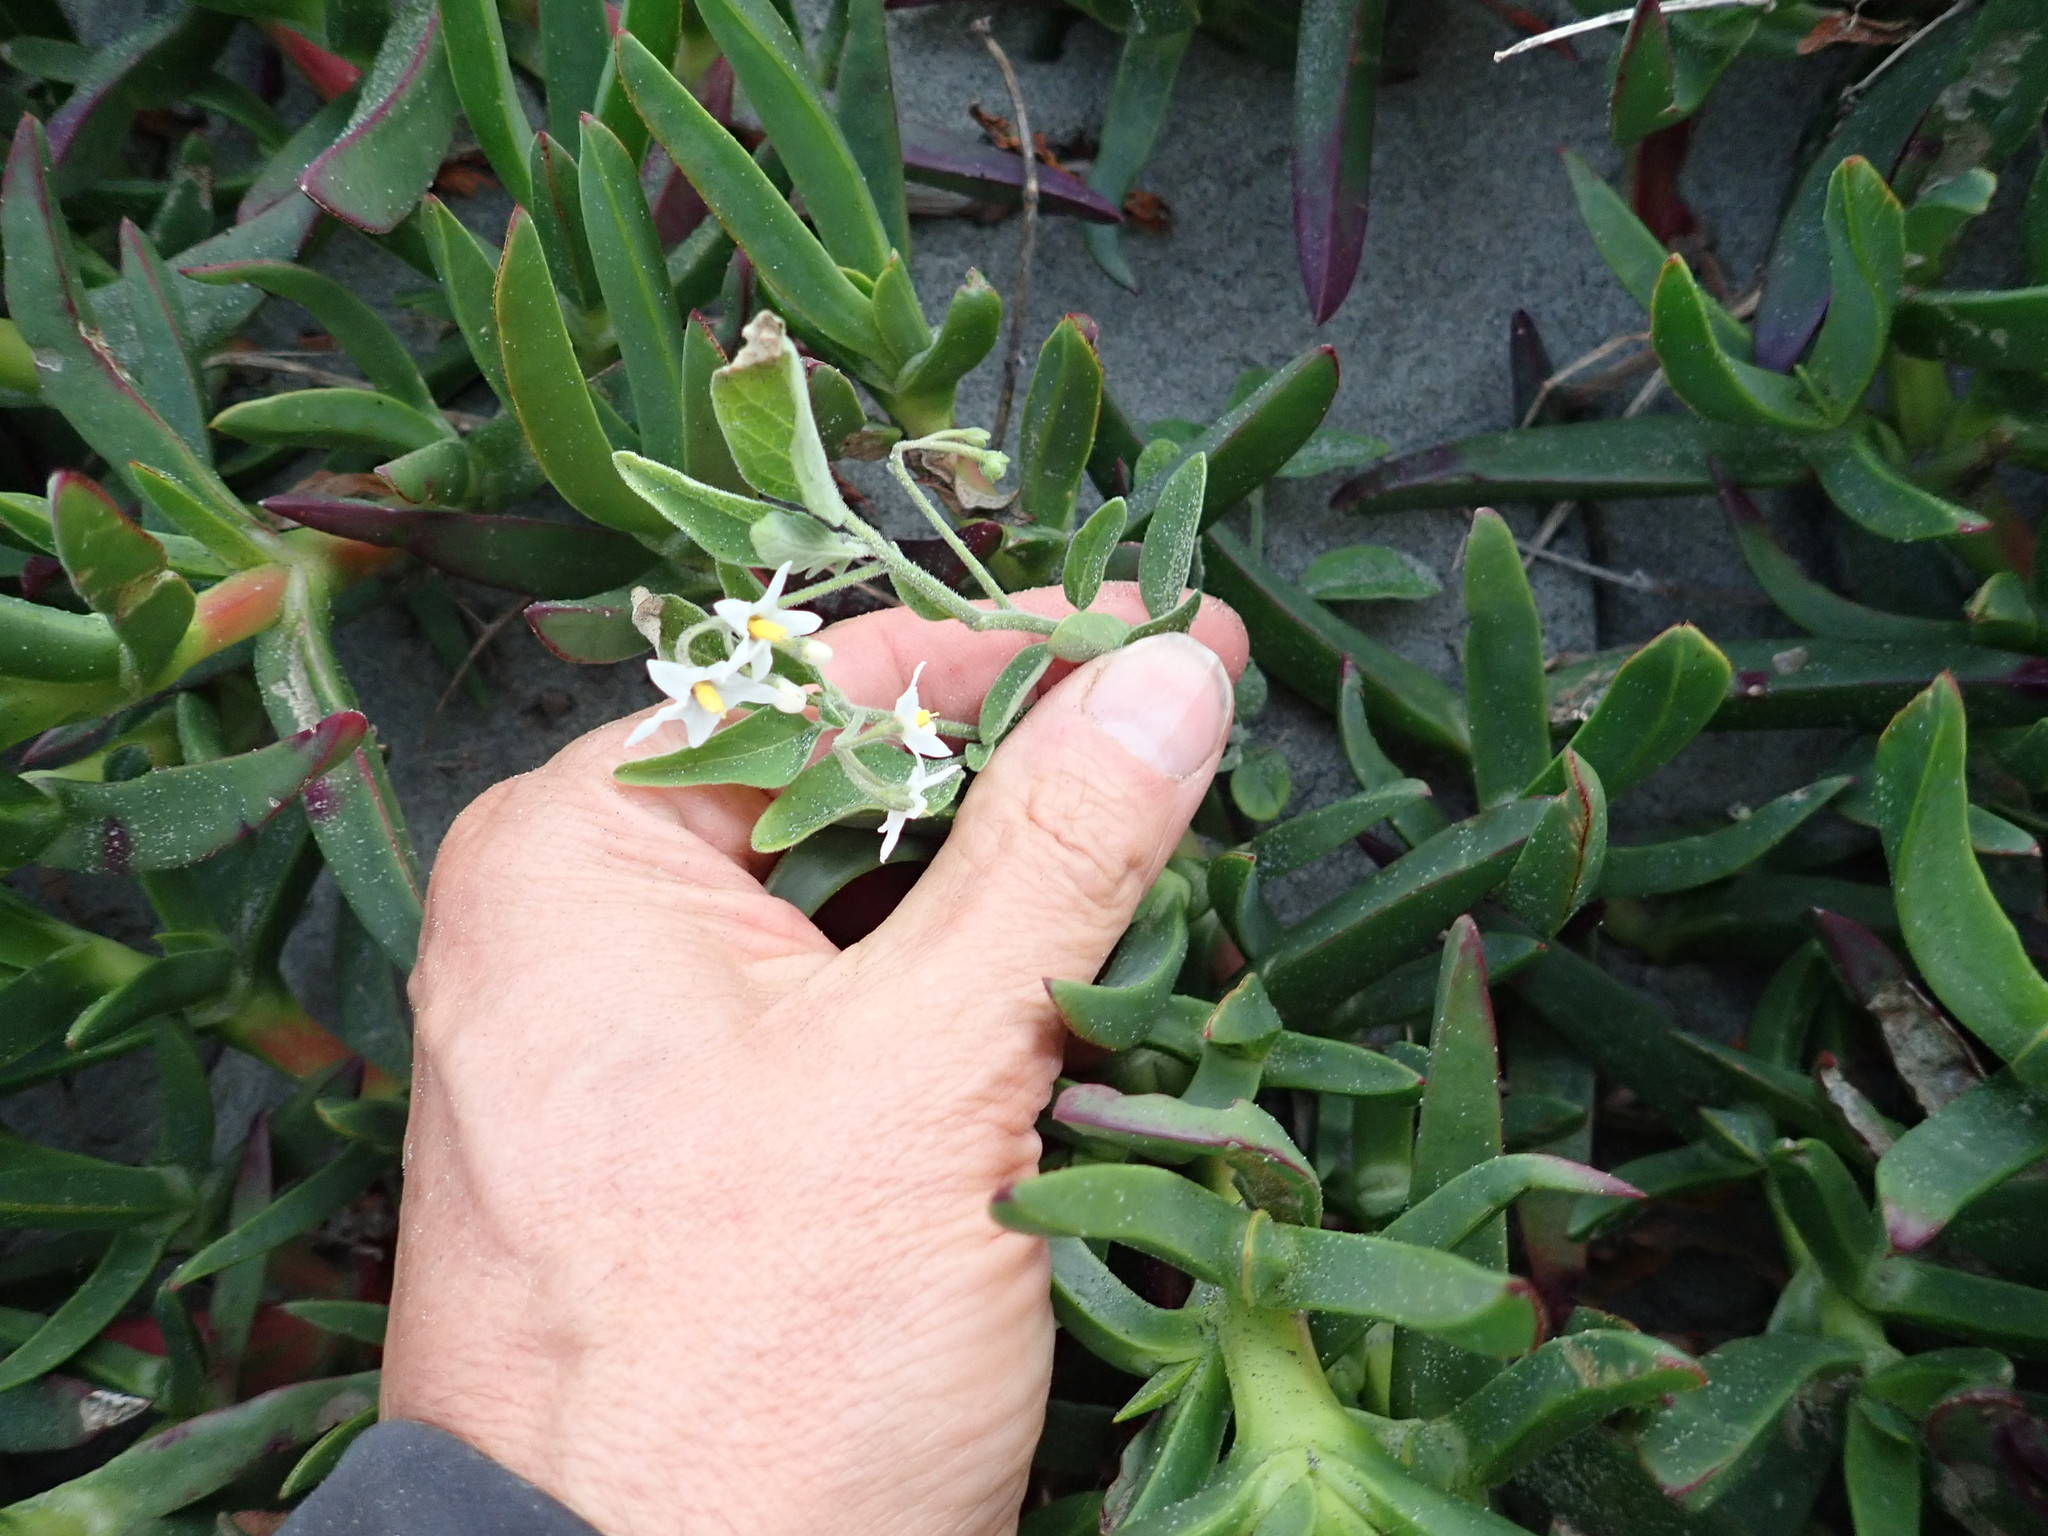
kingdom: Plantae
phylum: Tracheophyta
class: Magnoliopsida
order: Solanales
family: Solanaceae
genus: Solanum
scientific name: Solanum chenopodioides
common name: Tall nightshade
